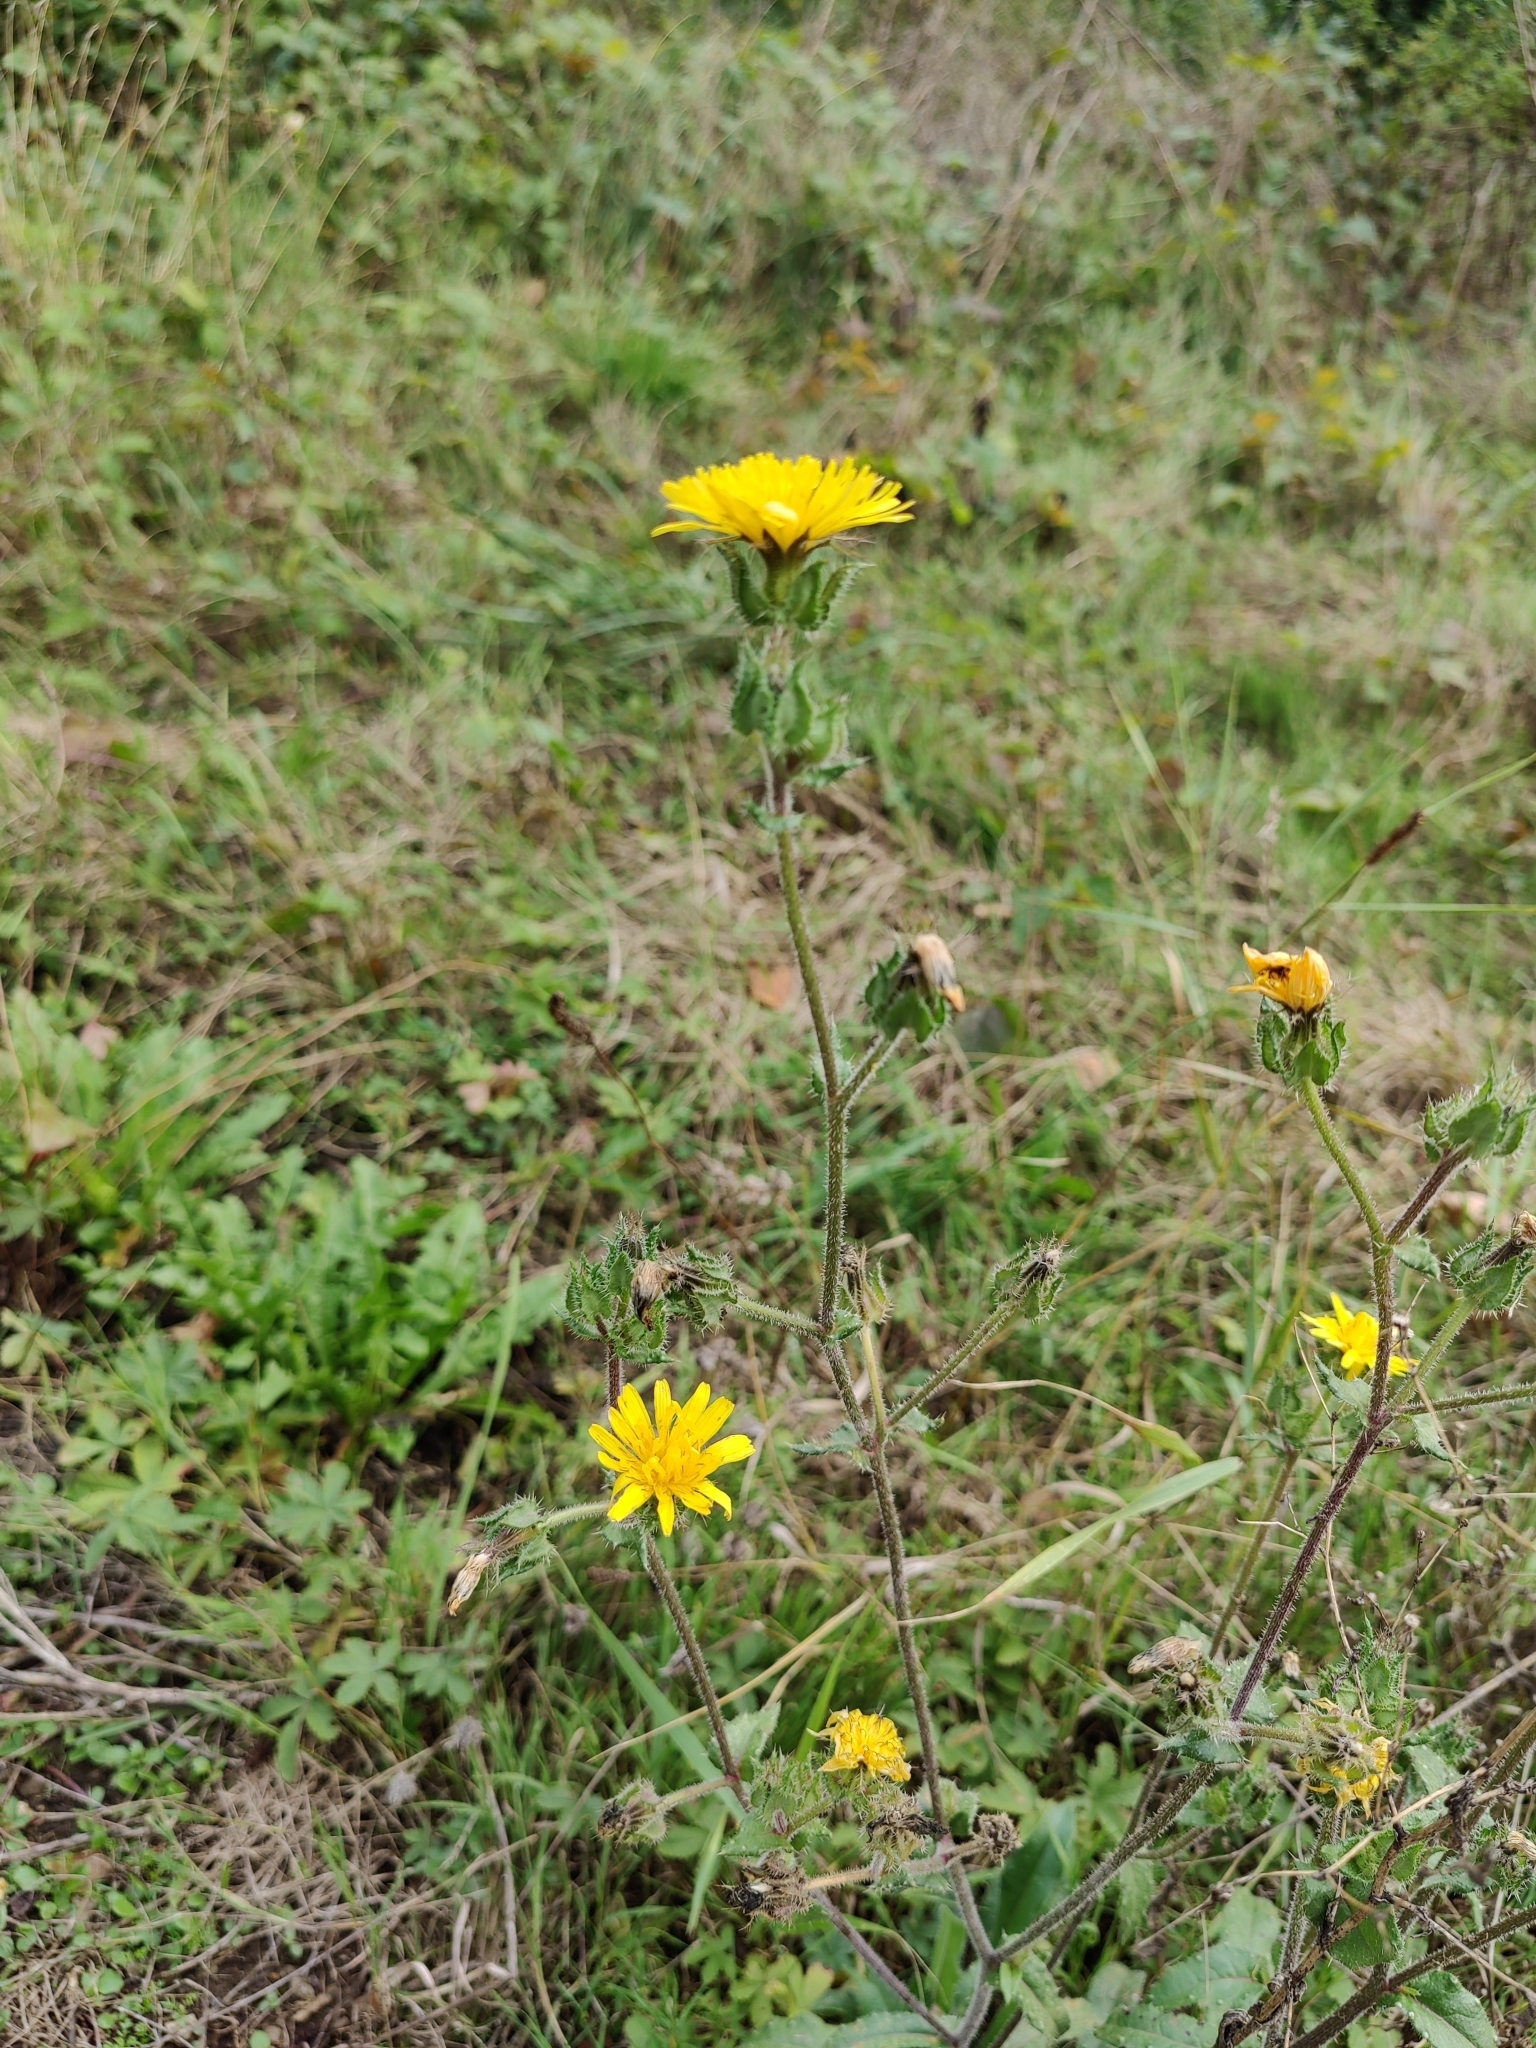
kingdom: Plantae
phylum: Tracheophyta
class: Magnoliopsida
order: Asterales
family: Asteraceae
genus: Helminthotheca
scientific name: Helminthotheca echioides
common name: Ox-tongue
